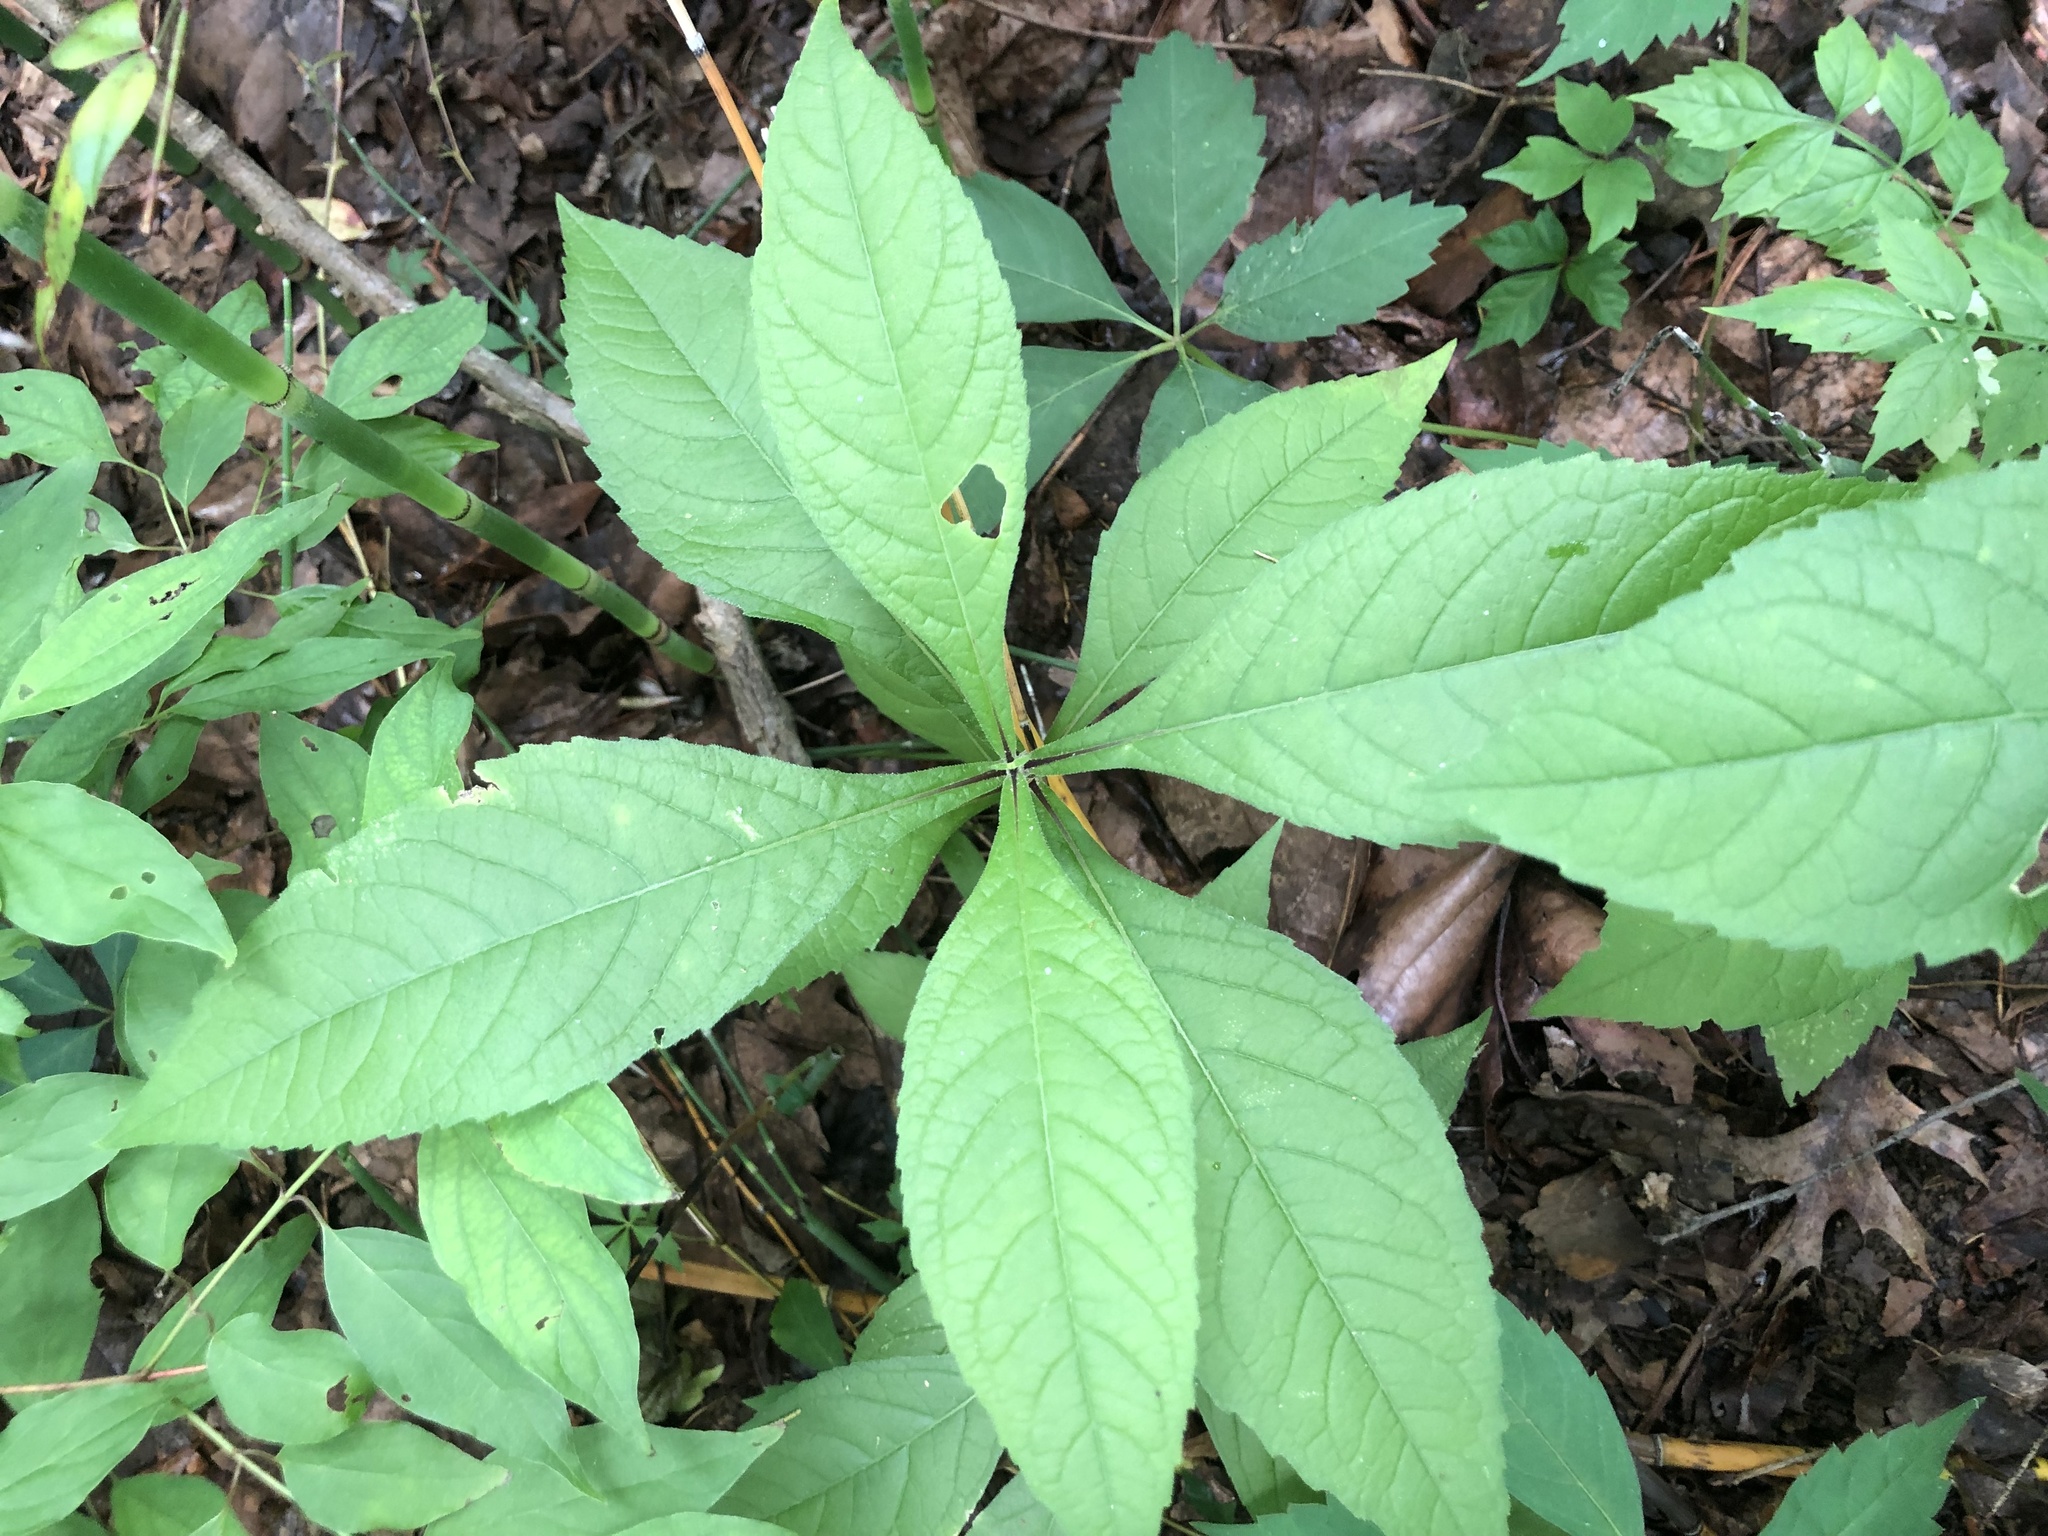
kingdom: Plantae
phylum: Tracheophyta
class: Magnoliopsida
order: Asterales
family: Asteraceae
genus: Verbesina
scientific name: Verbesina alternifolia
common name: Wingstem
